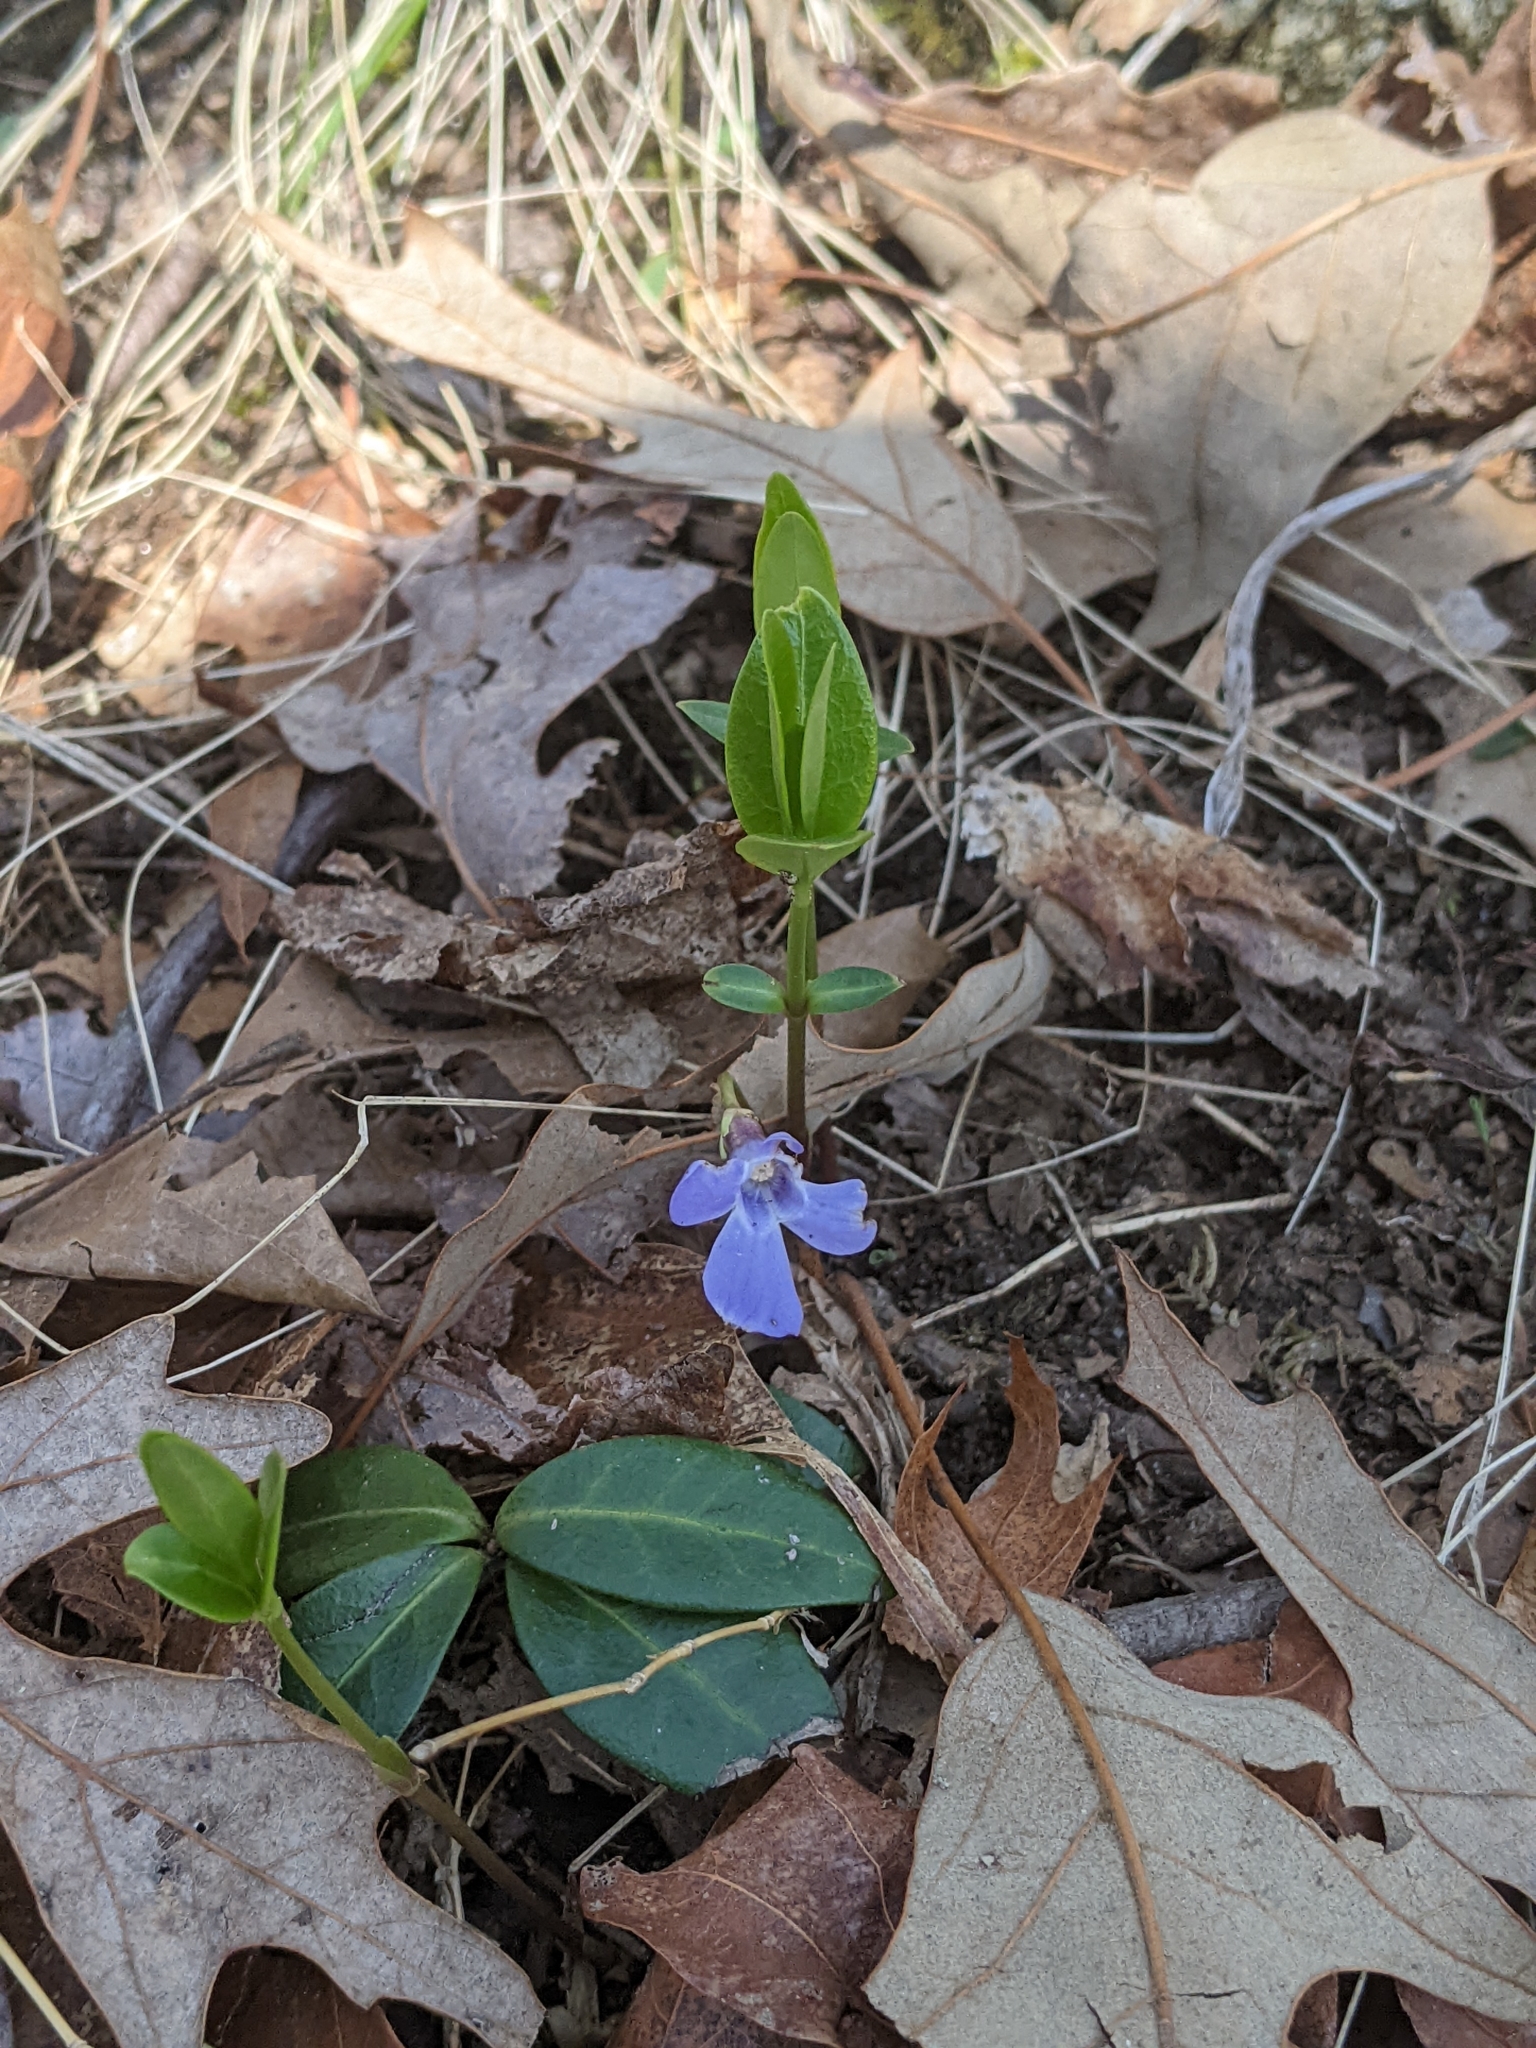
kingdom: Plantae
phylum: Tracheophyta
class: Magnoliopsida
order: Gentianales
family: Apocynaceae
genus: Vinca
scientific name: Vinca minor
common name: Lesser periwinkle
